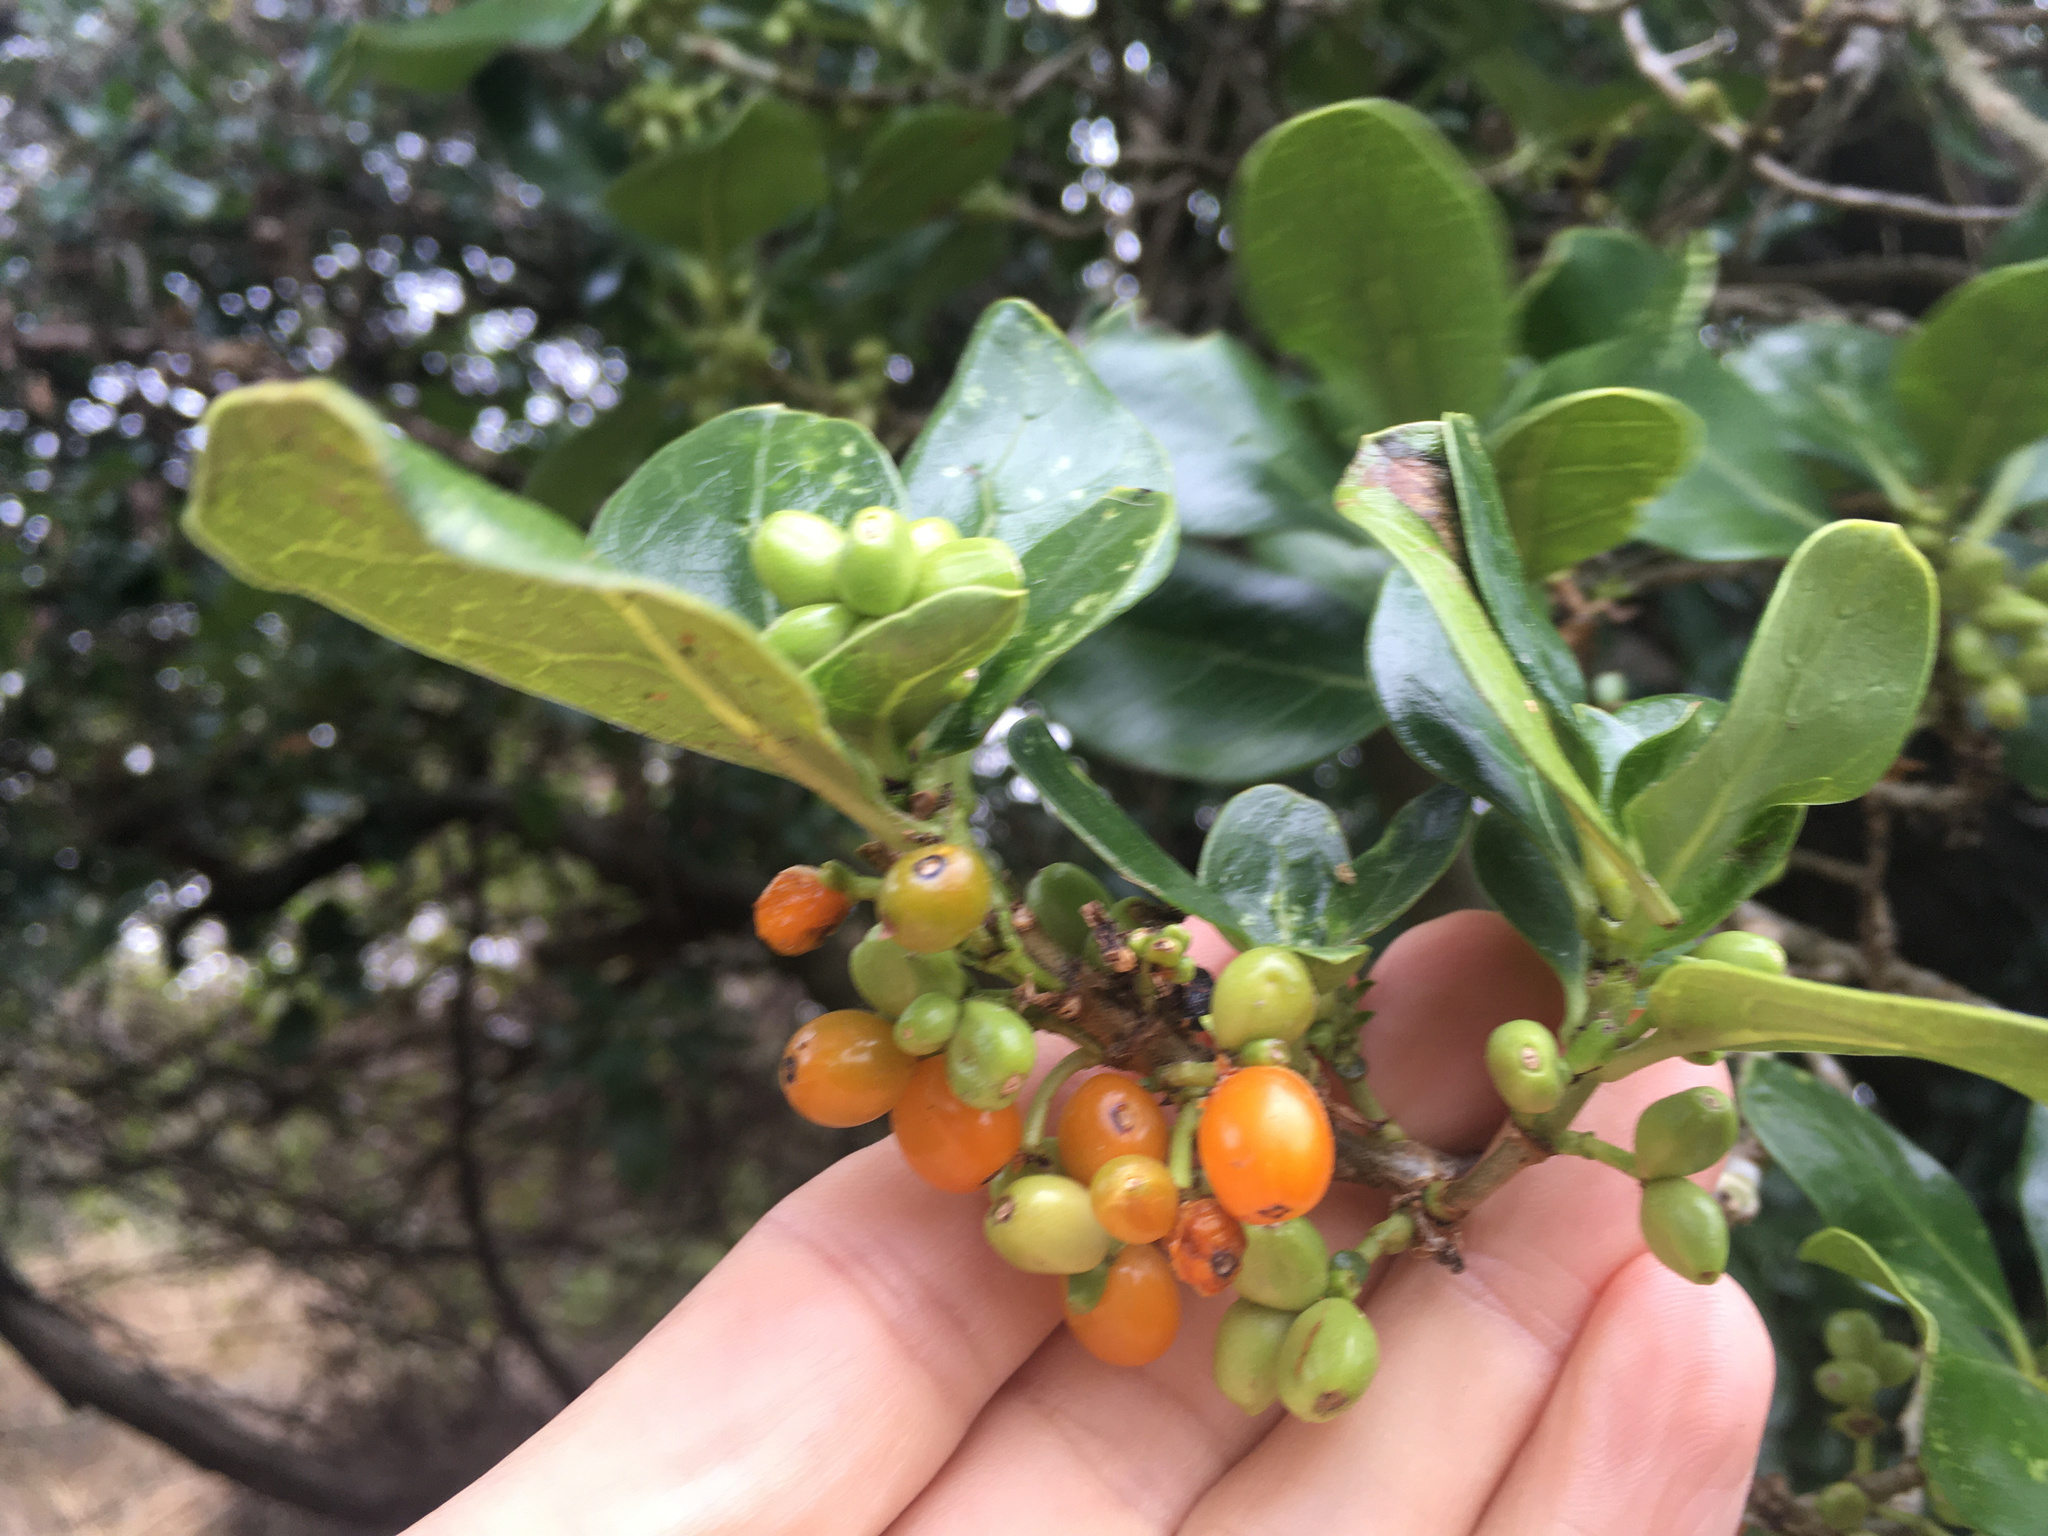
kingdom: Plantae
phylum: Tracheophyta
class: Magnoliopsida
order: Gentianales
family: Rubiaceae
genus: Coprosma
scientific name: Coprosma repens
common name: Tree bedstraw
